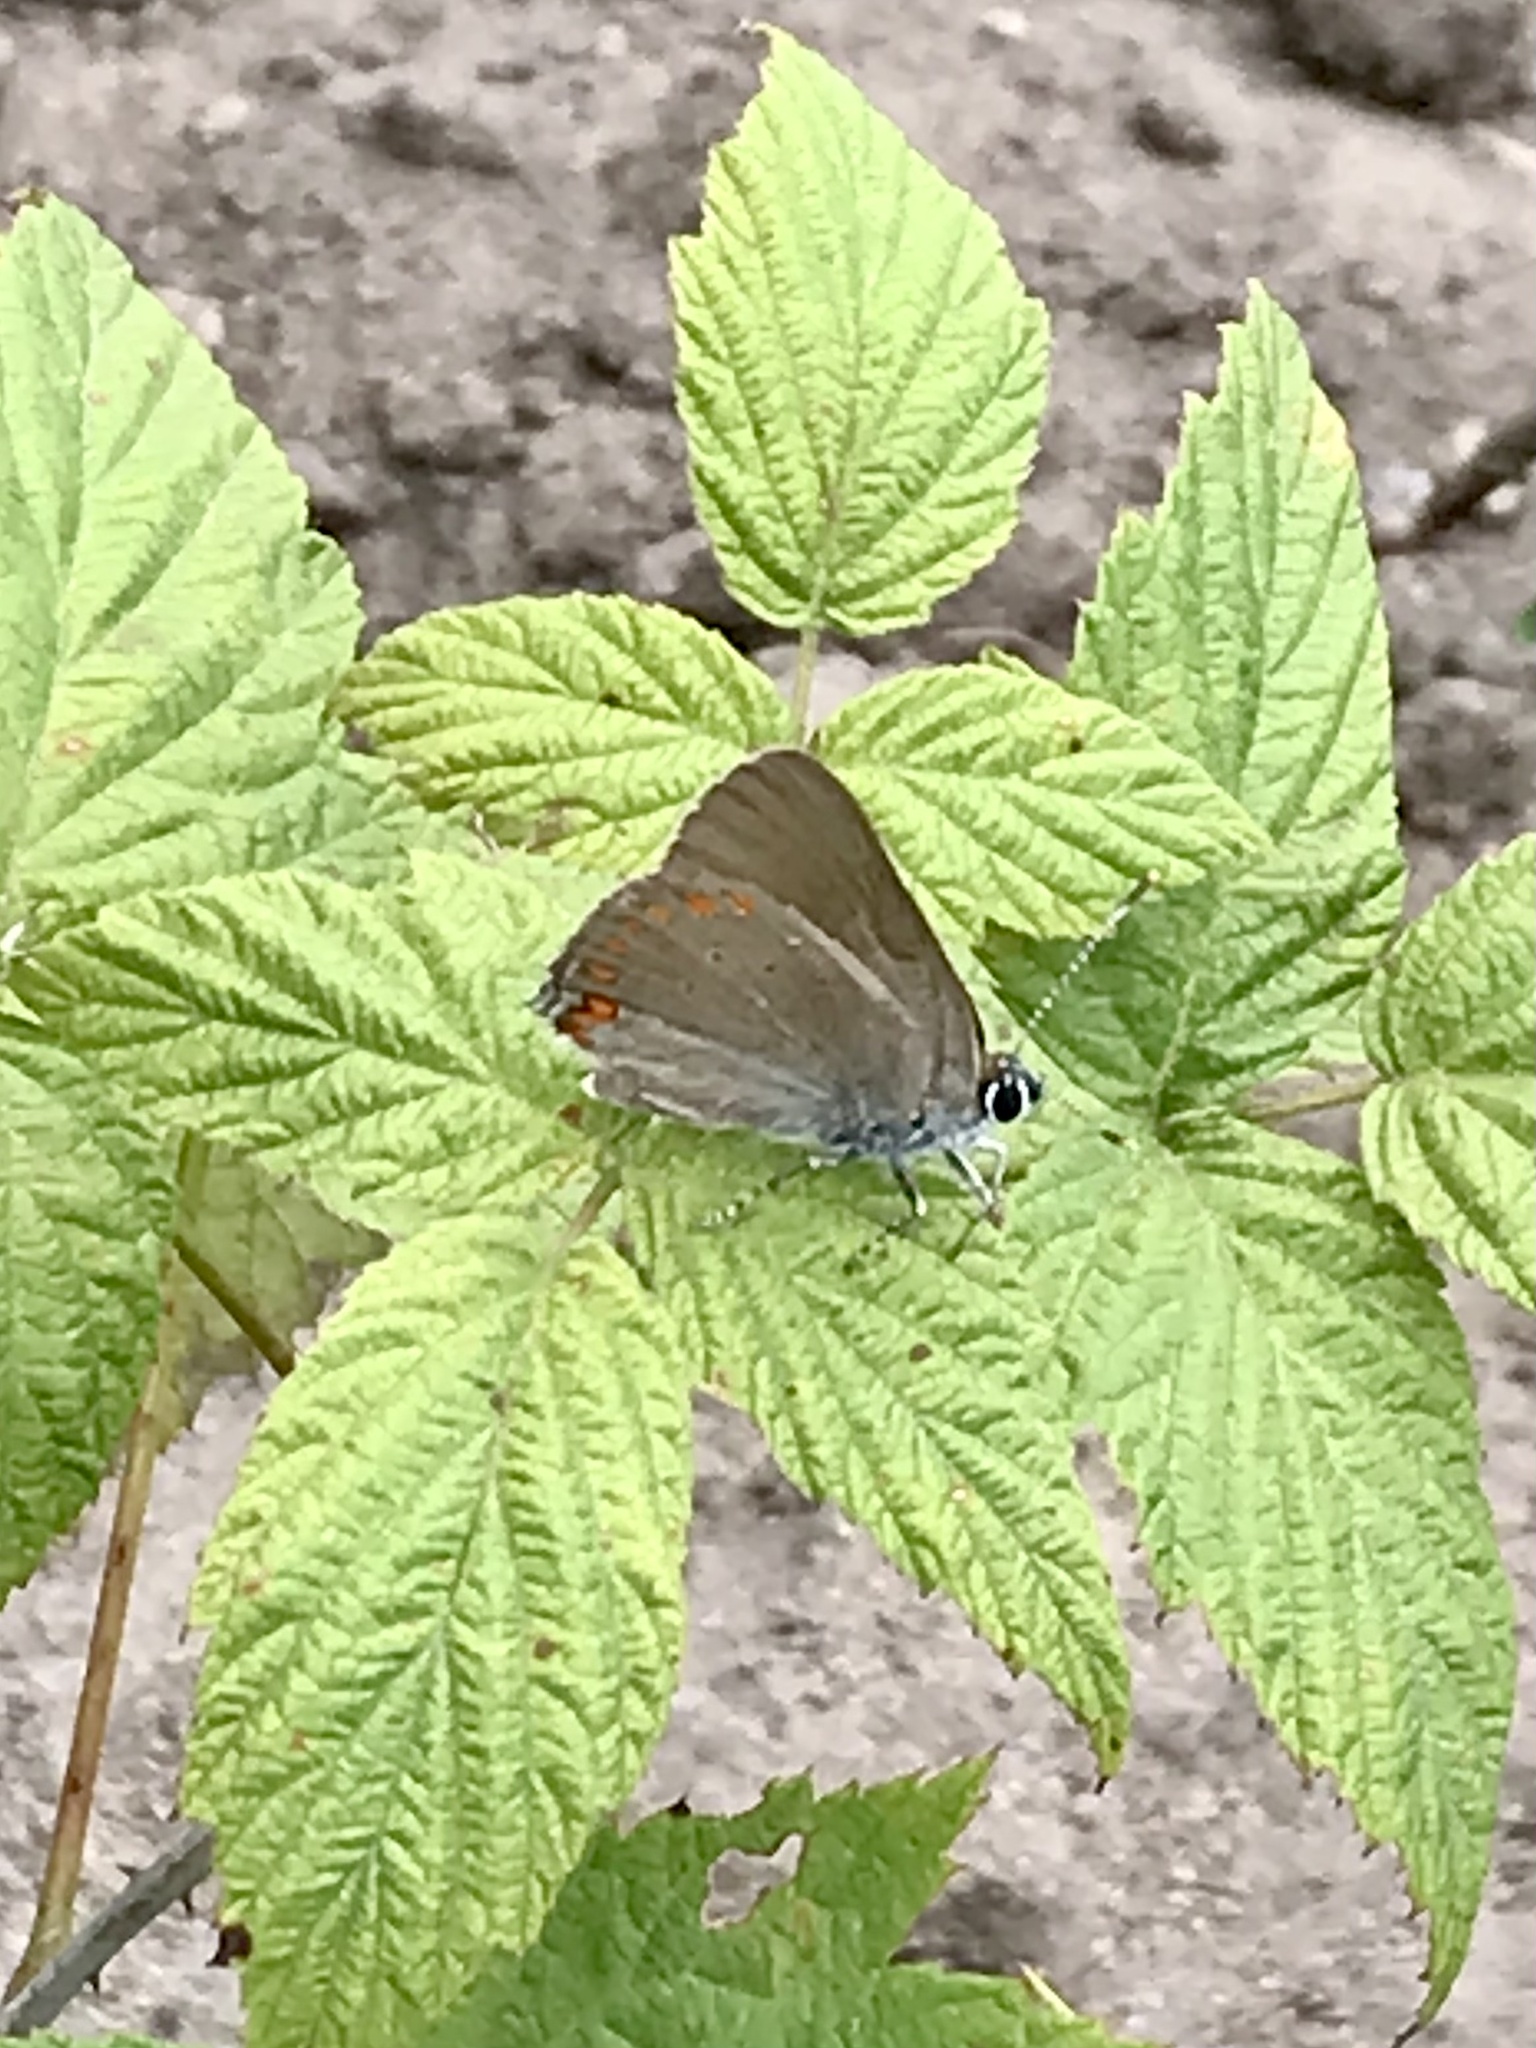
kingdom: Animalia
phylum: Arthropoda
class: Insecta
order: Lepidoptera
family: Lycaenidae
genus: Harkenclenus
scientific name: Harkenclenus titus
